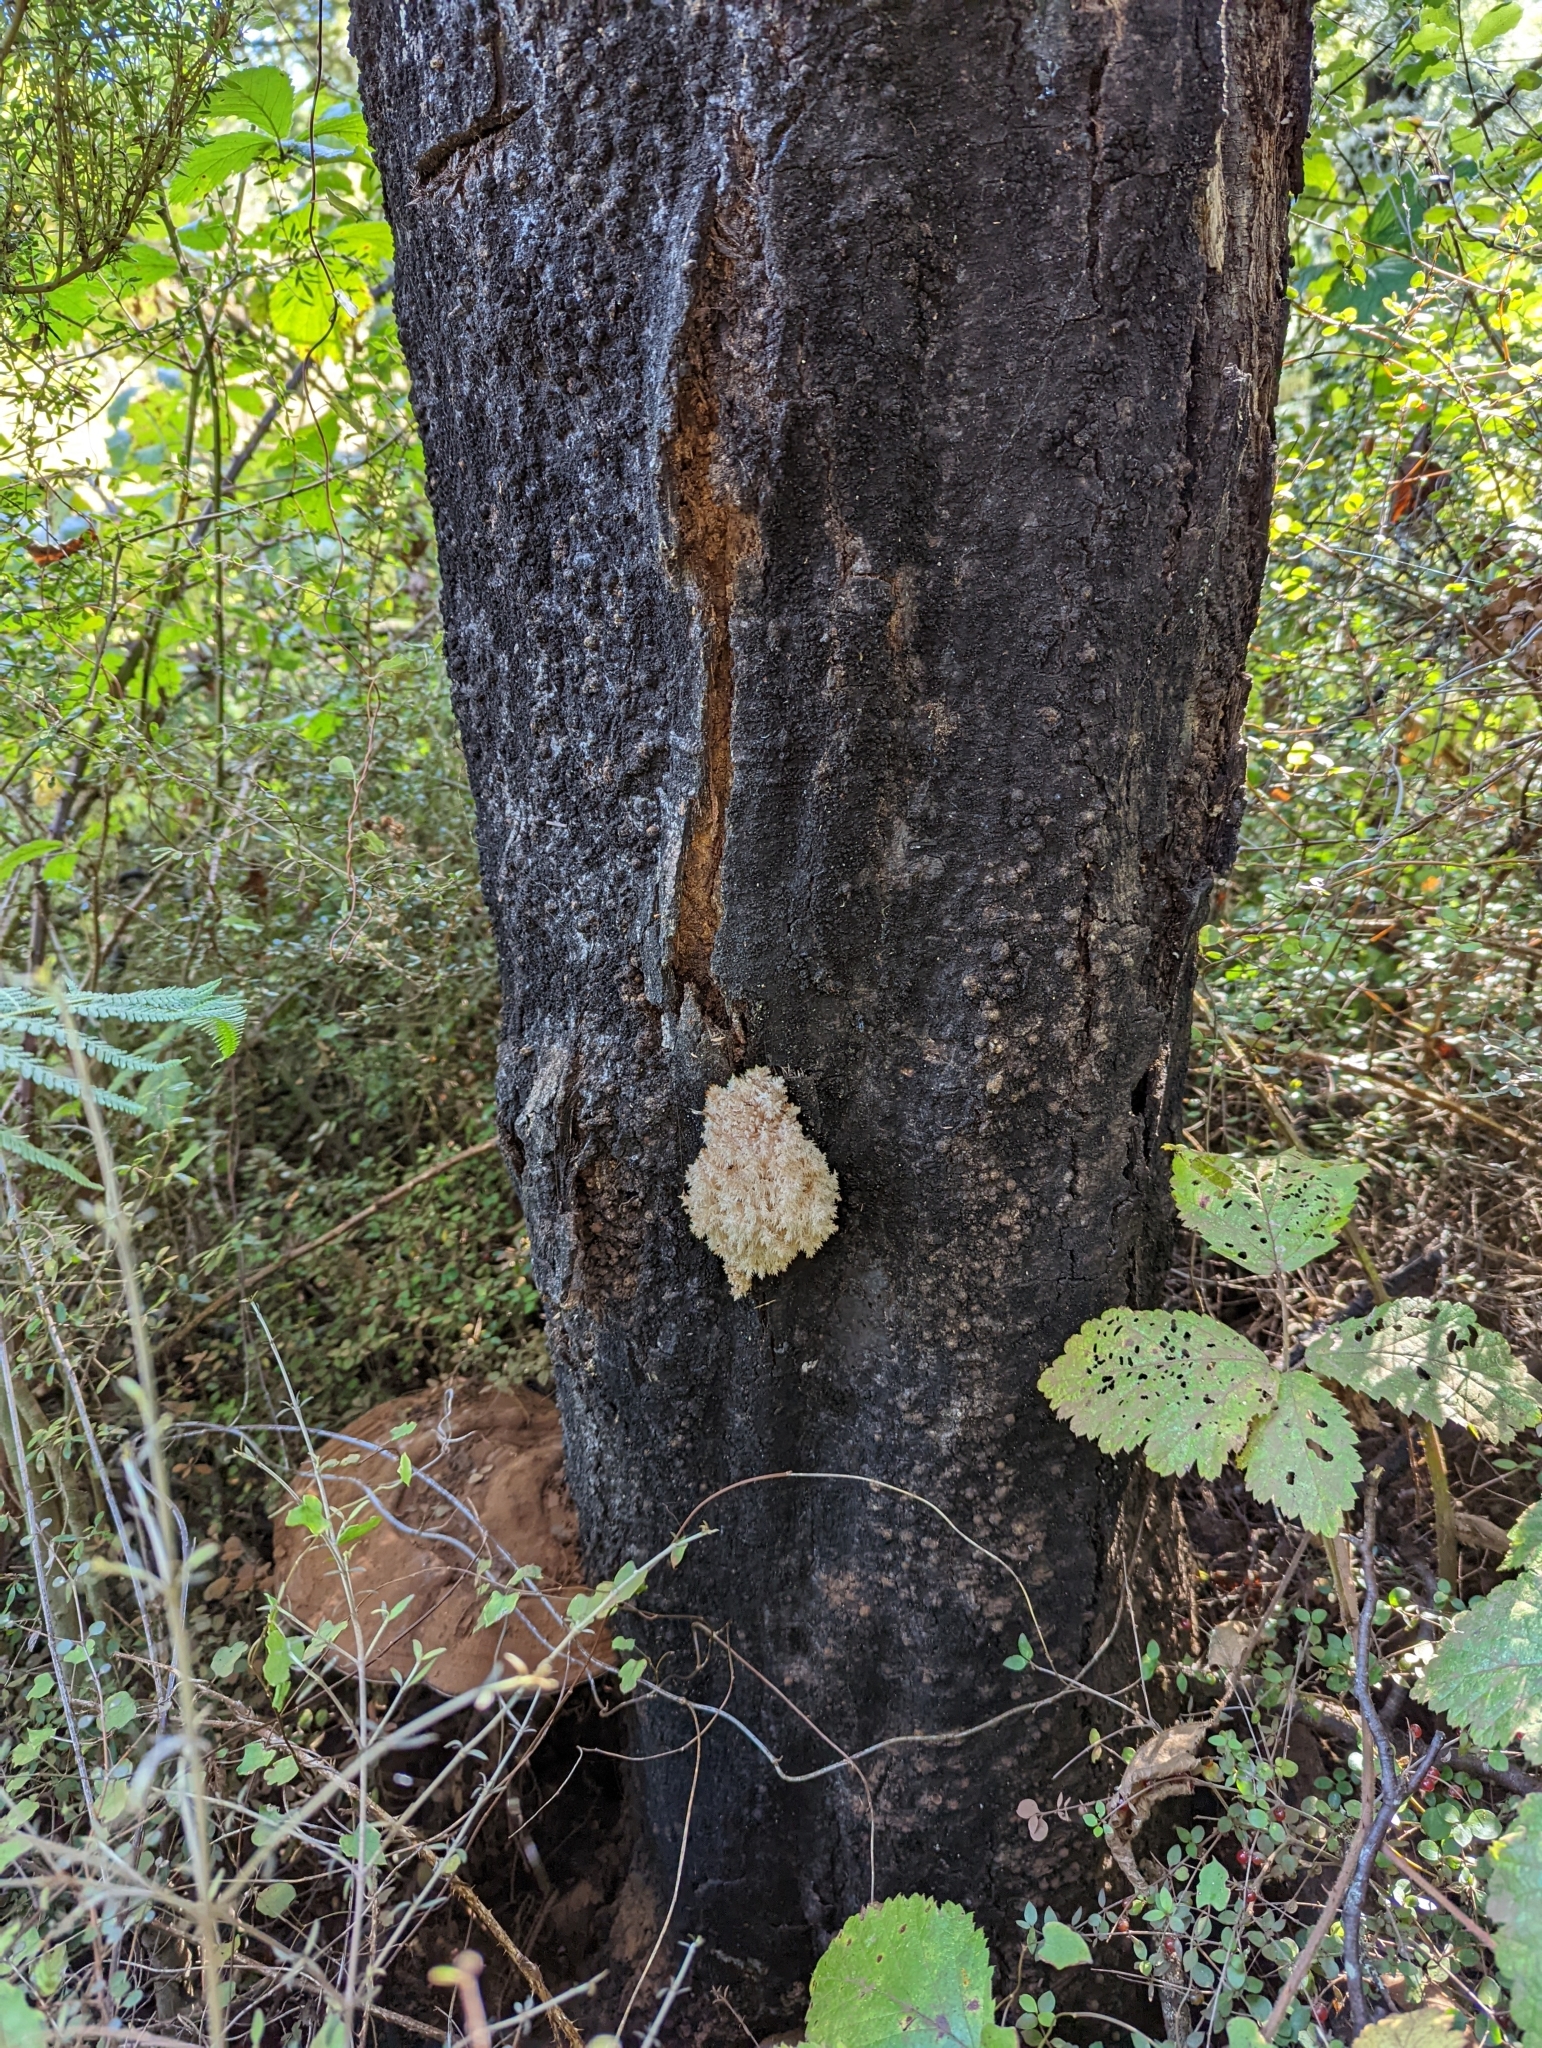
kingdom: Fungi
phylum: Basidiomycota
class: Agaricomycetes
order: Russulales
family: Hericiaceae
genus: Hericium
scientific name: Hericium novae-zealandiae
